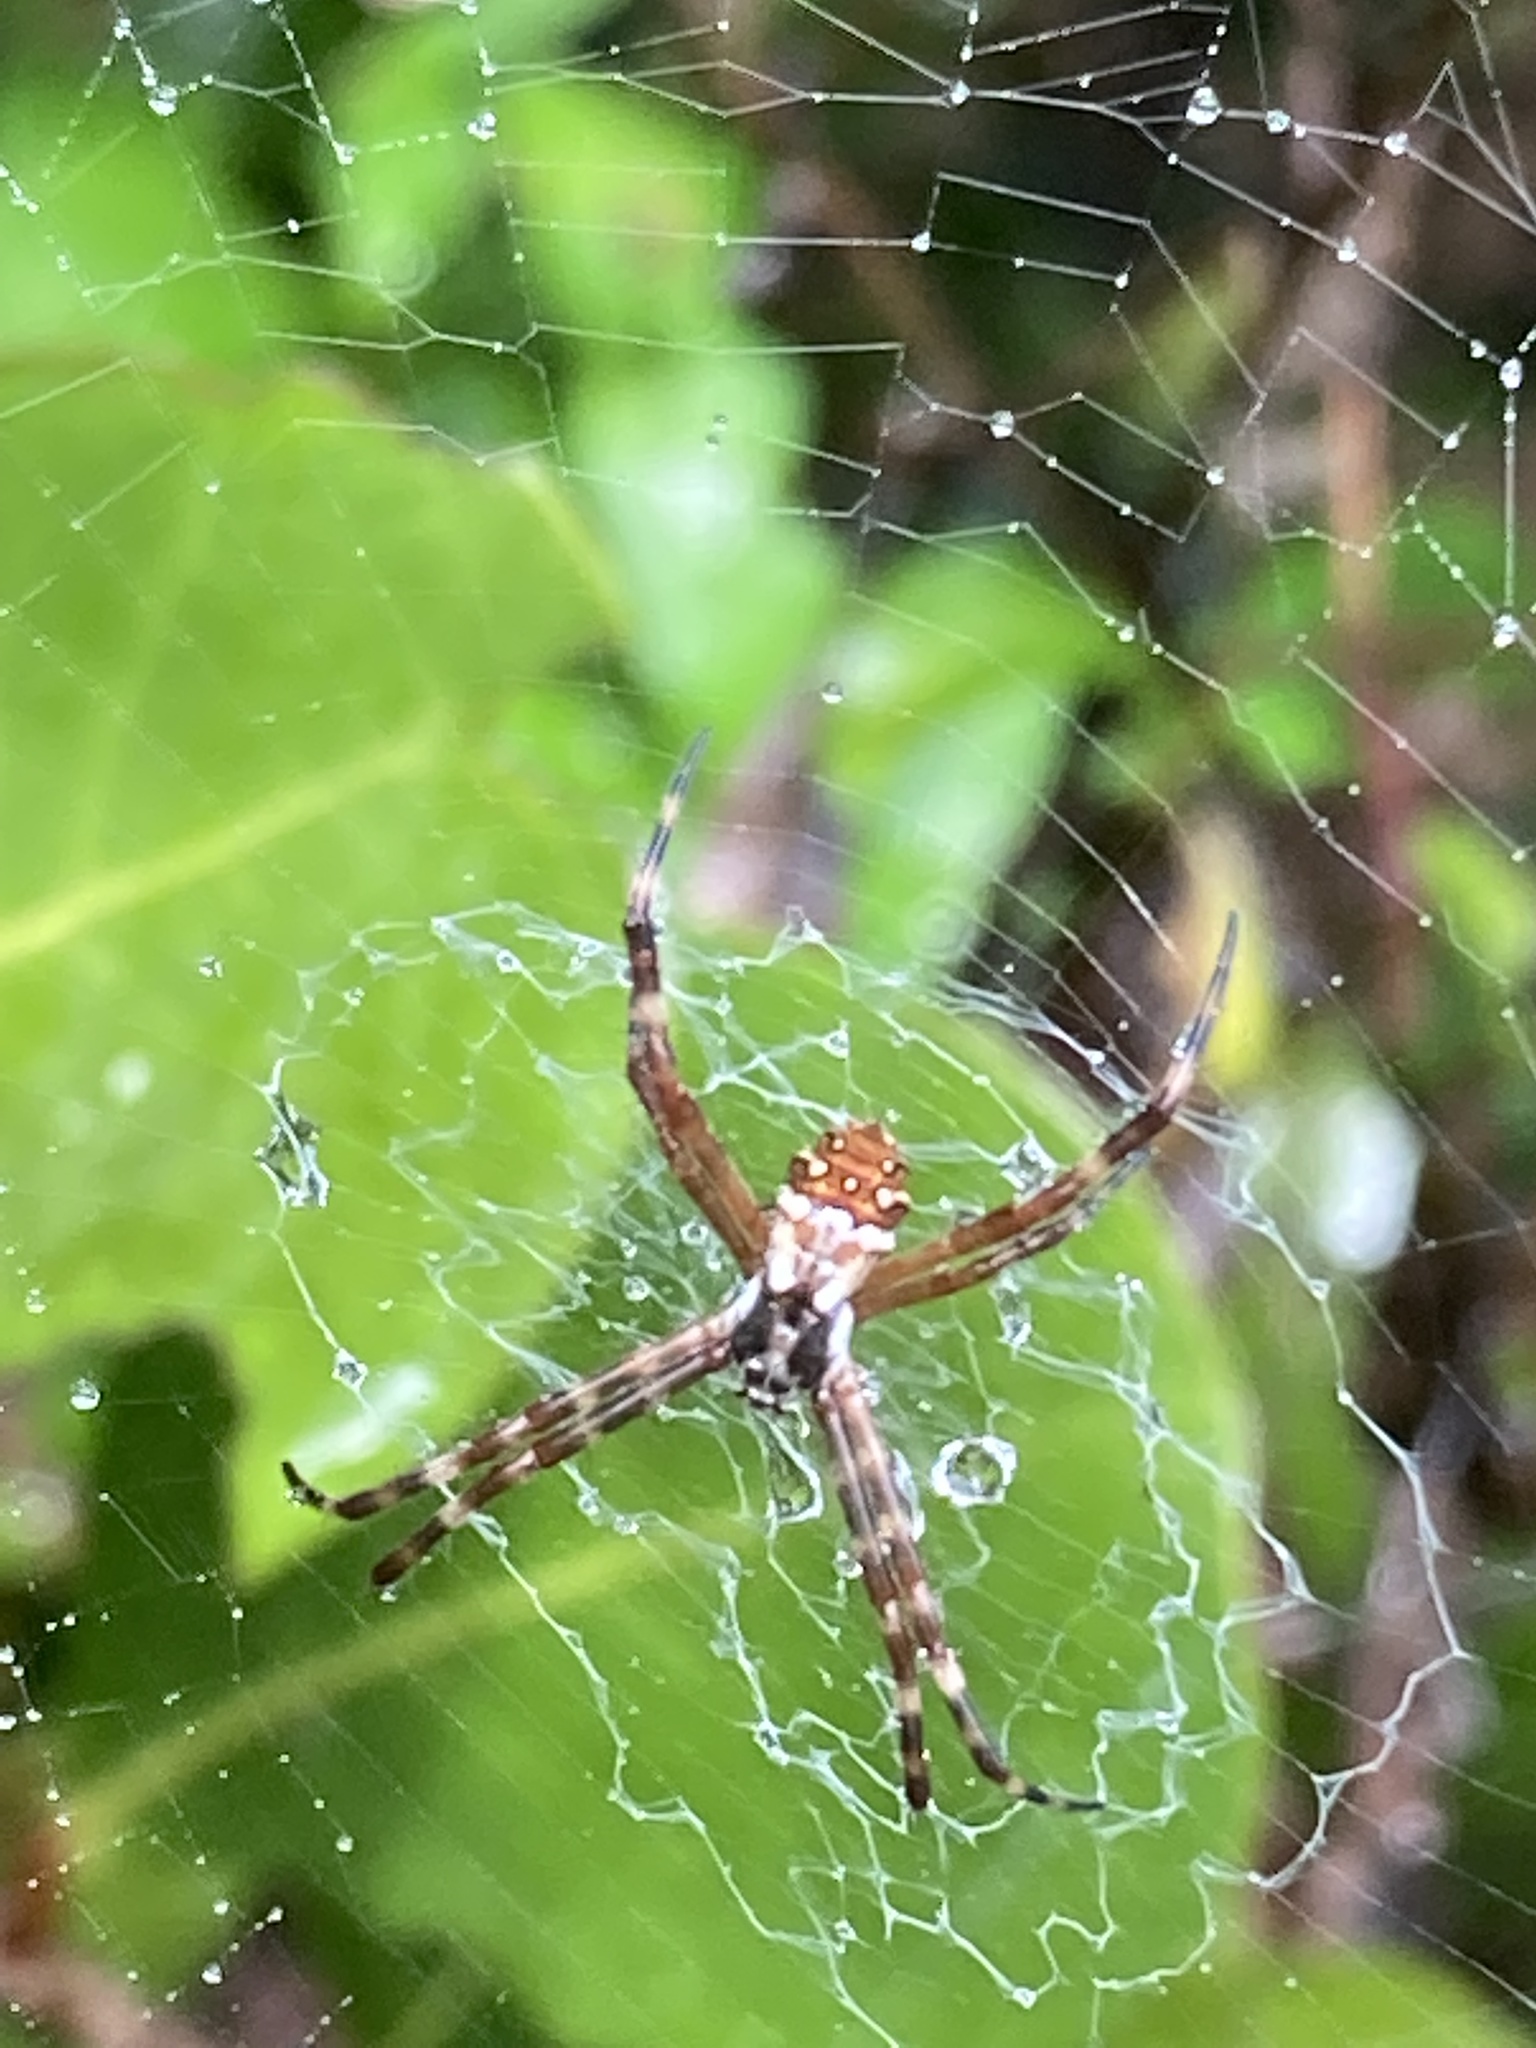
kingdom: Animalia
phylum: Arthropoda
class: Arachnida
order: Araneae
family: Araneidae
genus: Argiope
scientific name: Argiope argentata
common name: Orb weavers
